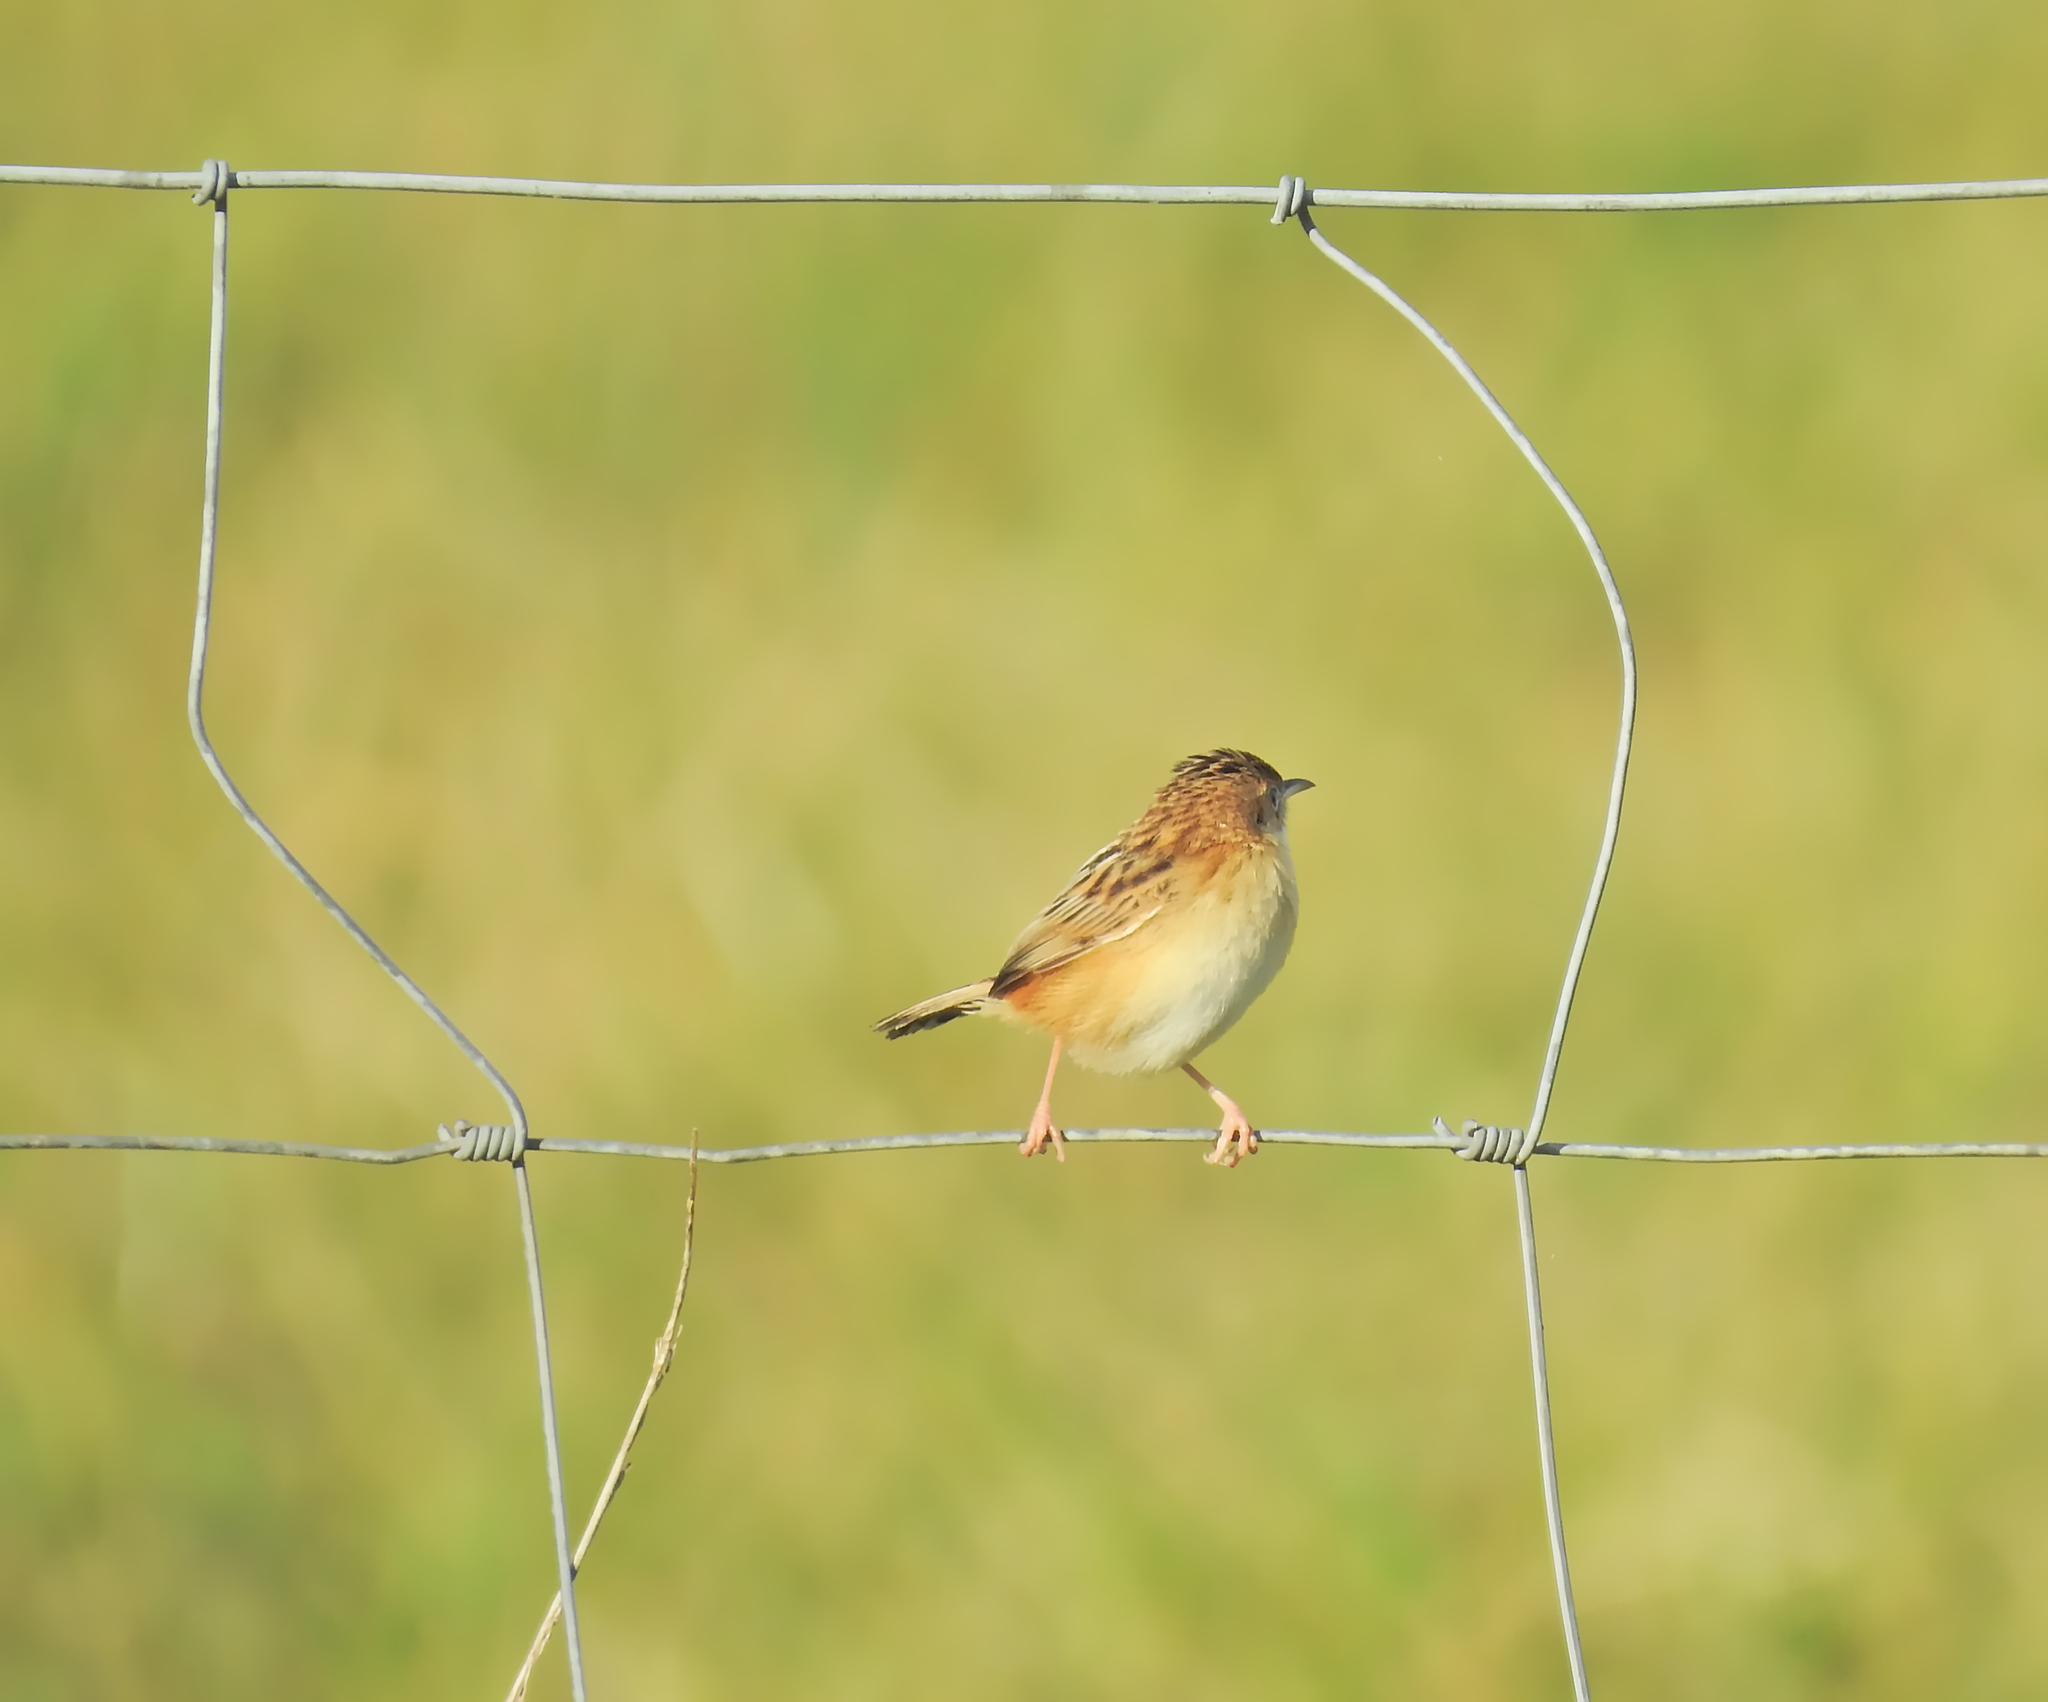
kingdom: Animalia
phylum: Chordata
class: Aves
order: Passeriformes
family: Cisticolidae
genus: Cisticola
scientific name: Cisticola juncidis
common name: Zitting cisticola
